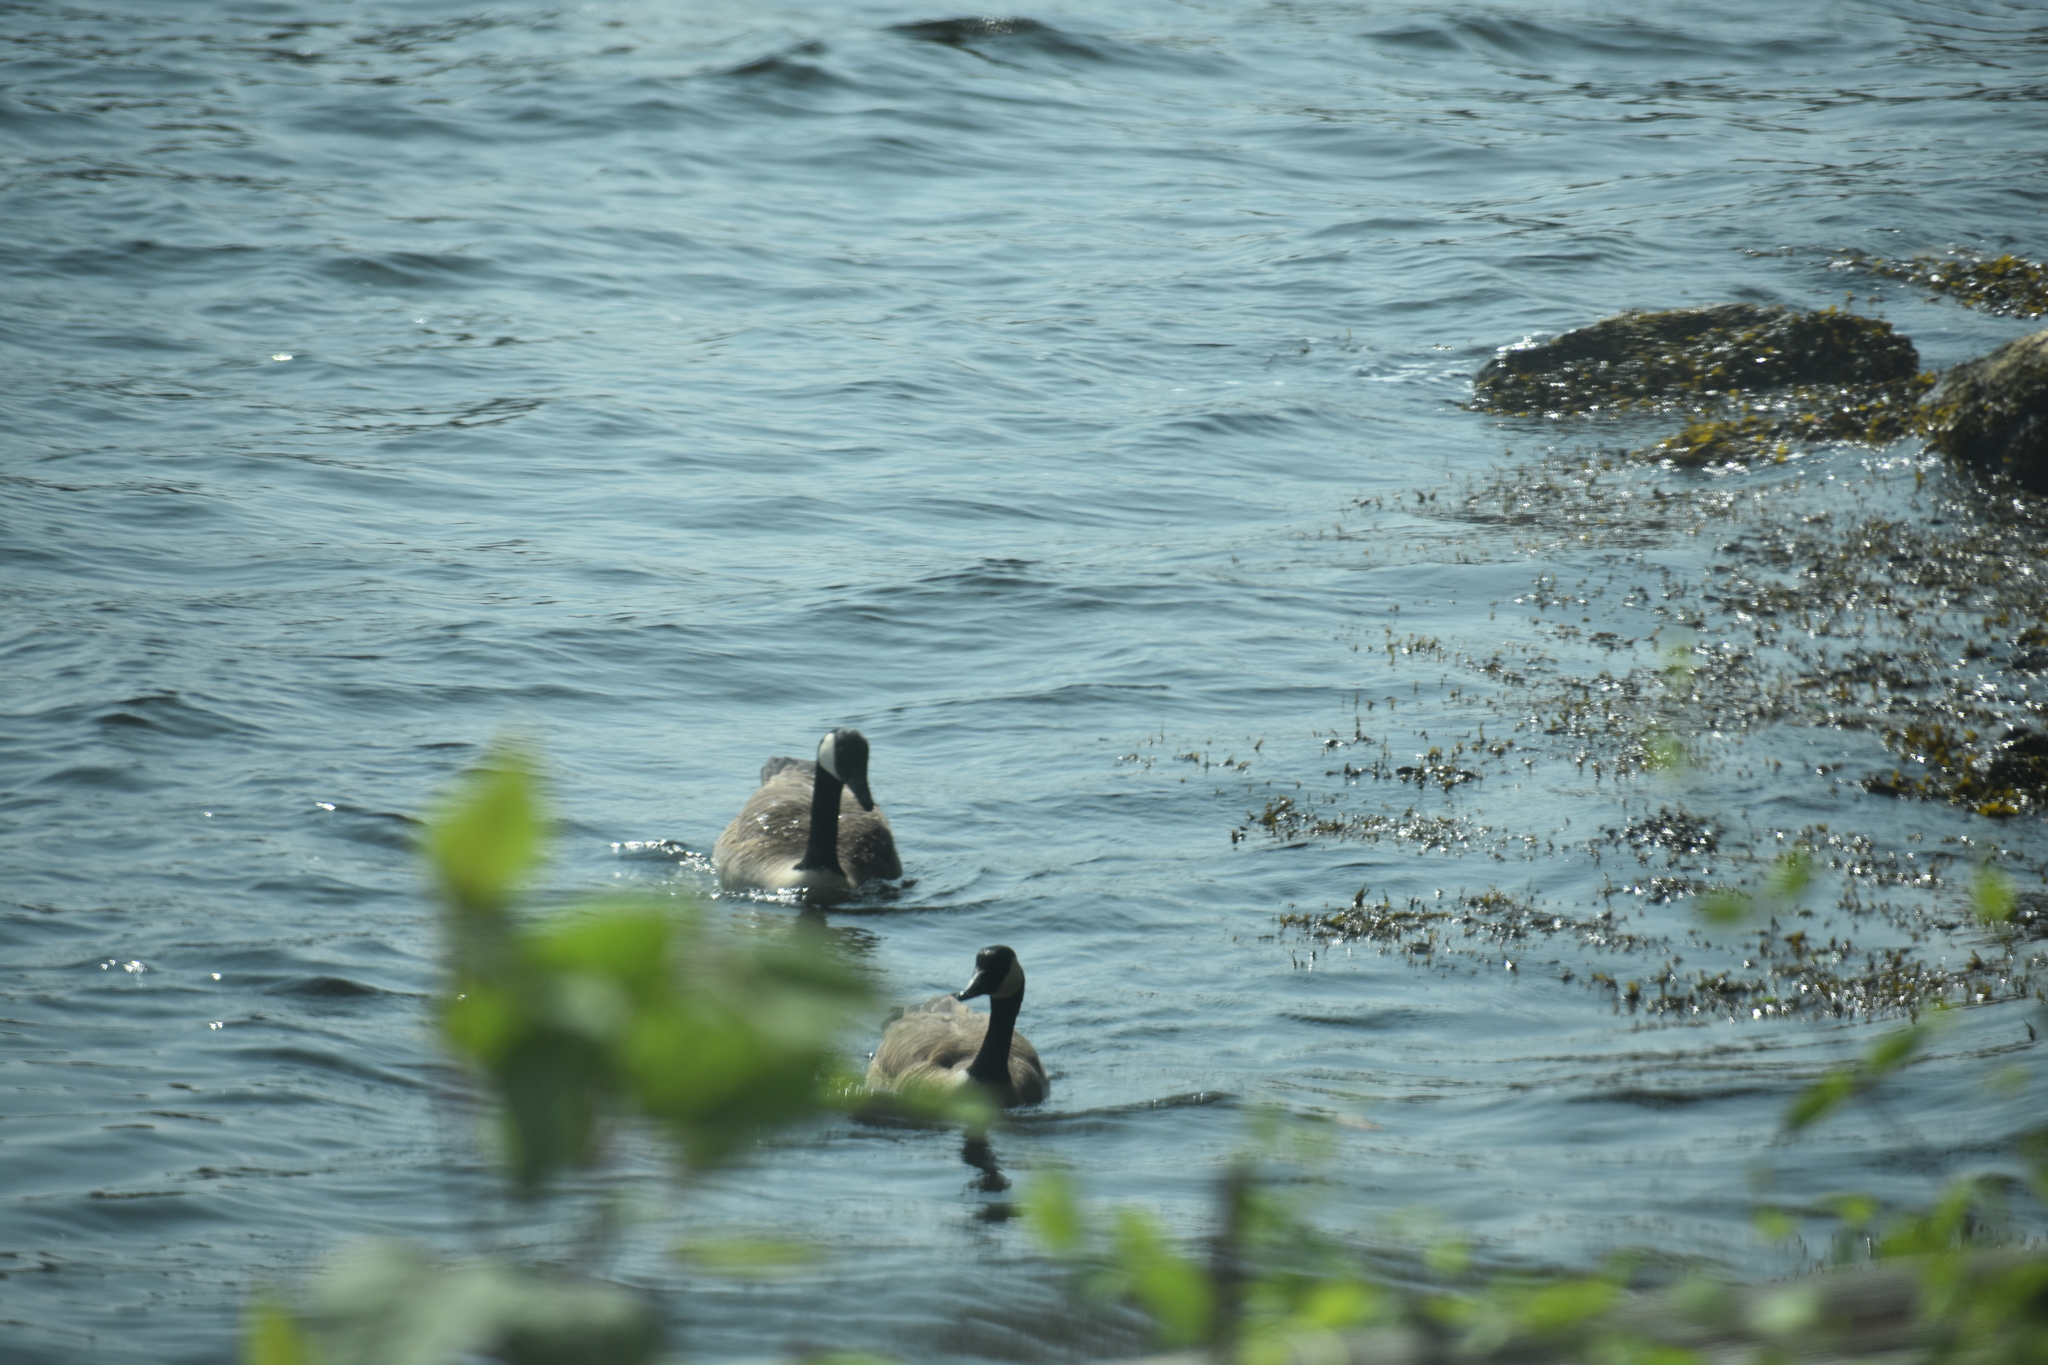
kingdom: Animalia
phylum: Chordata
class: Aves
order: Anseriformes
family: Anatidae
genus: Branta
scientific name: Branta canadensis
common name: Canada goose
